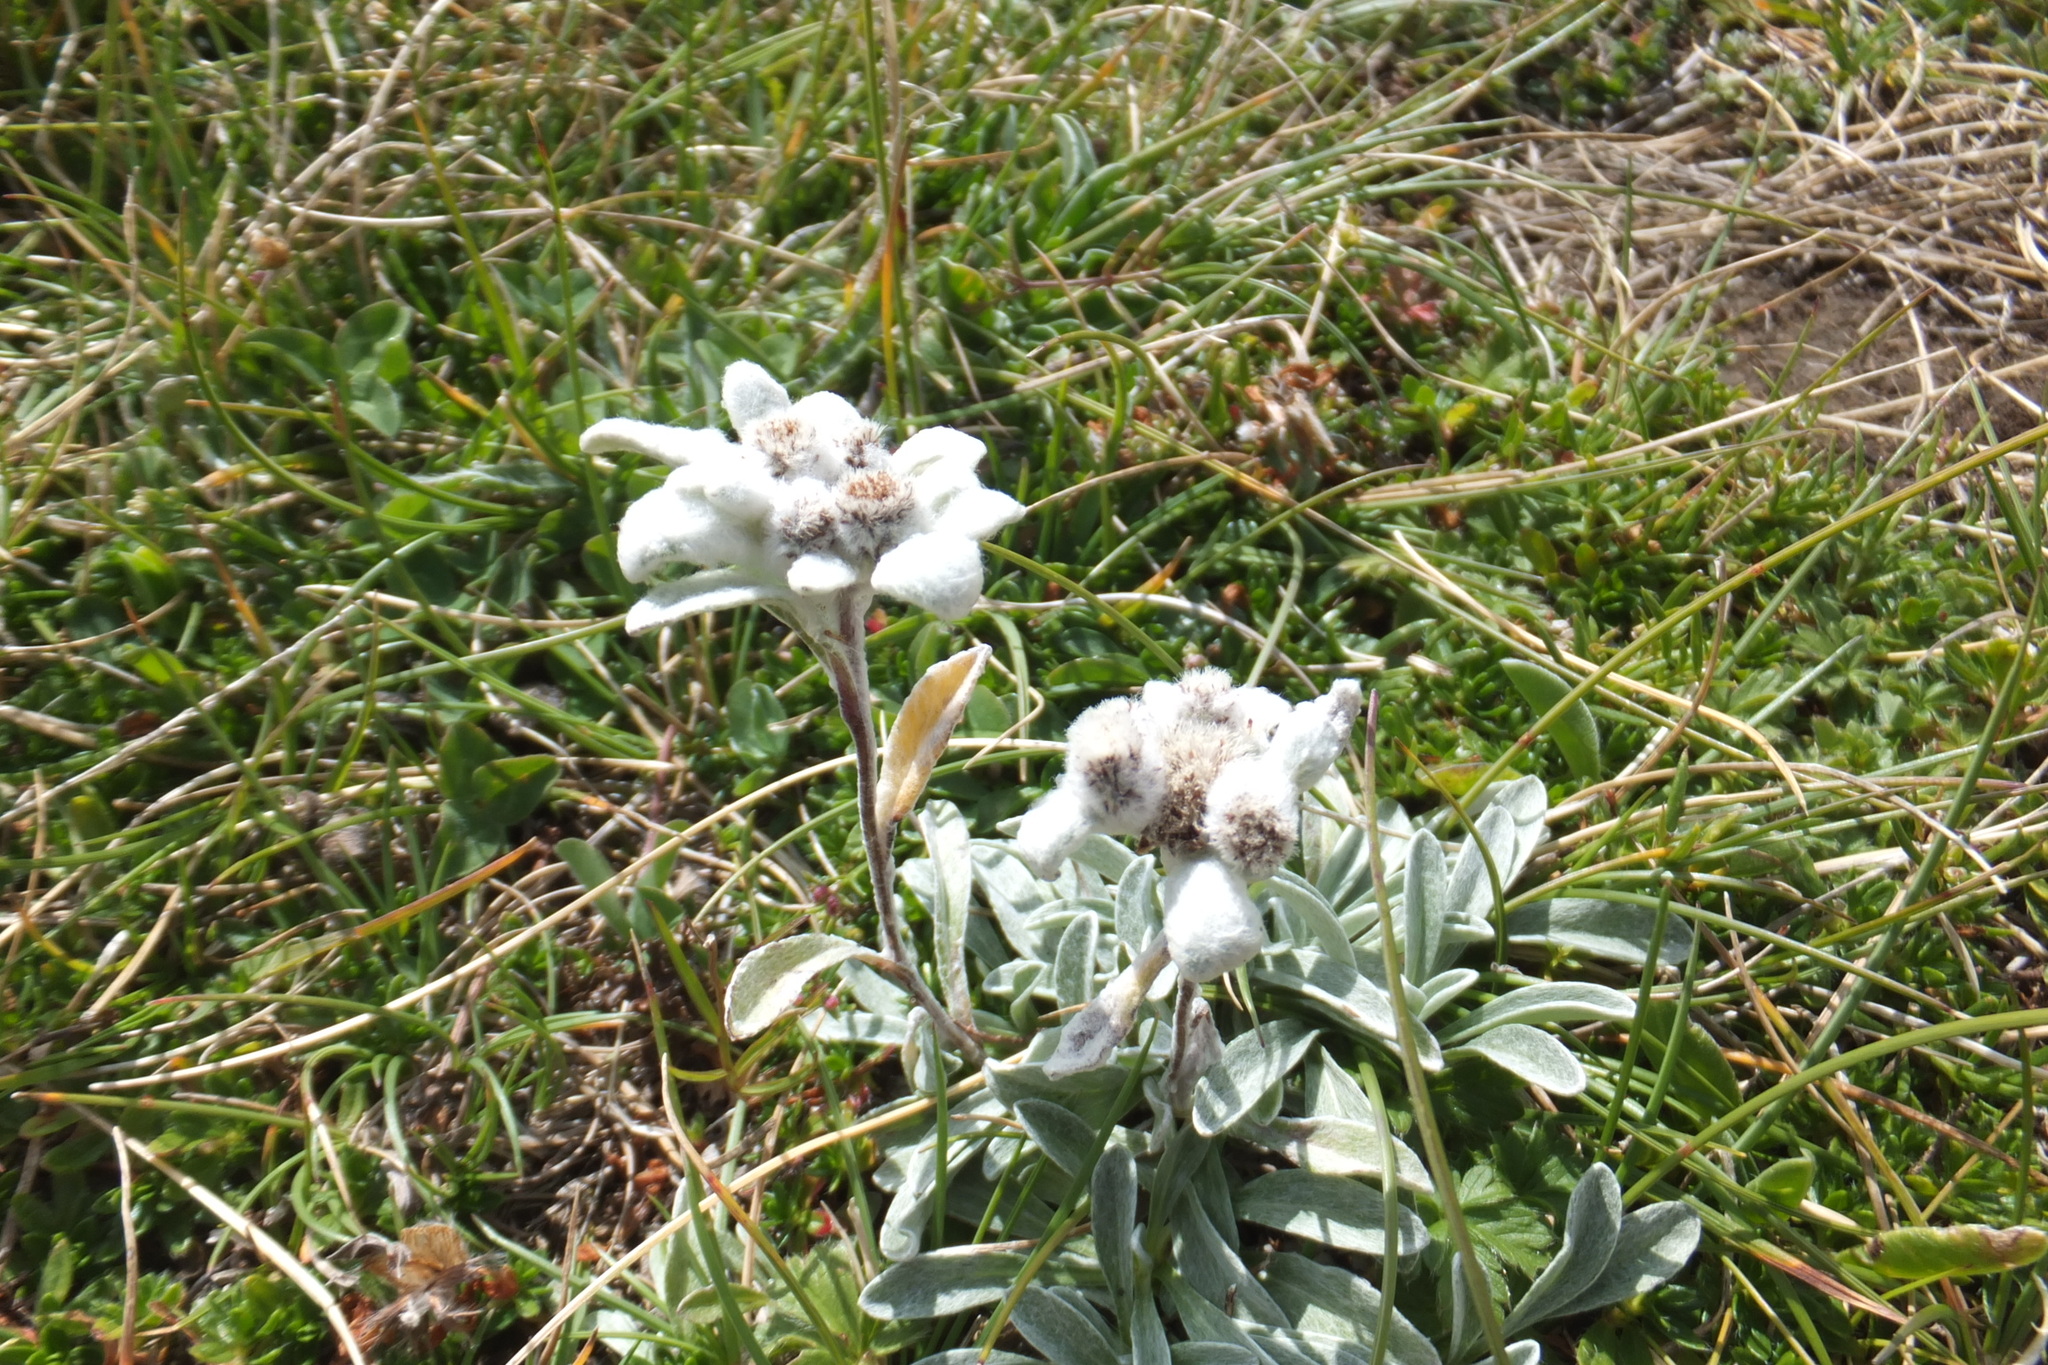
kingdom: Plantae
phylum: Tracheophyta
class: Magnoliopsida
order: Asterales
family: Asteraceae
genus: Leontopodium
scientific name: Leontopodium nivale
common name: Edelweiss
